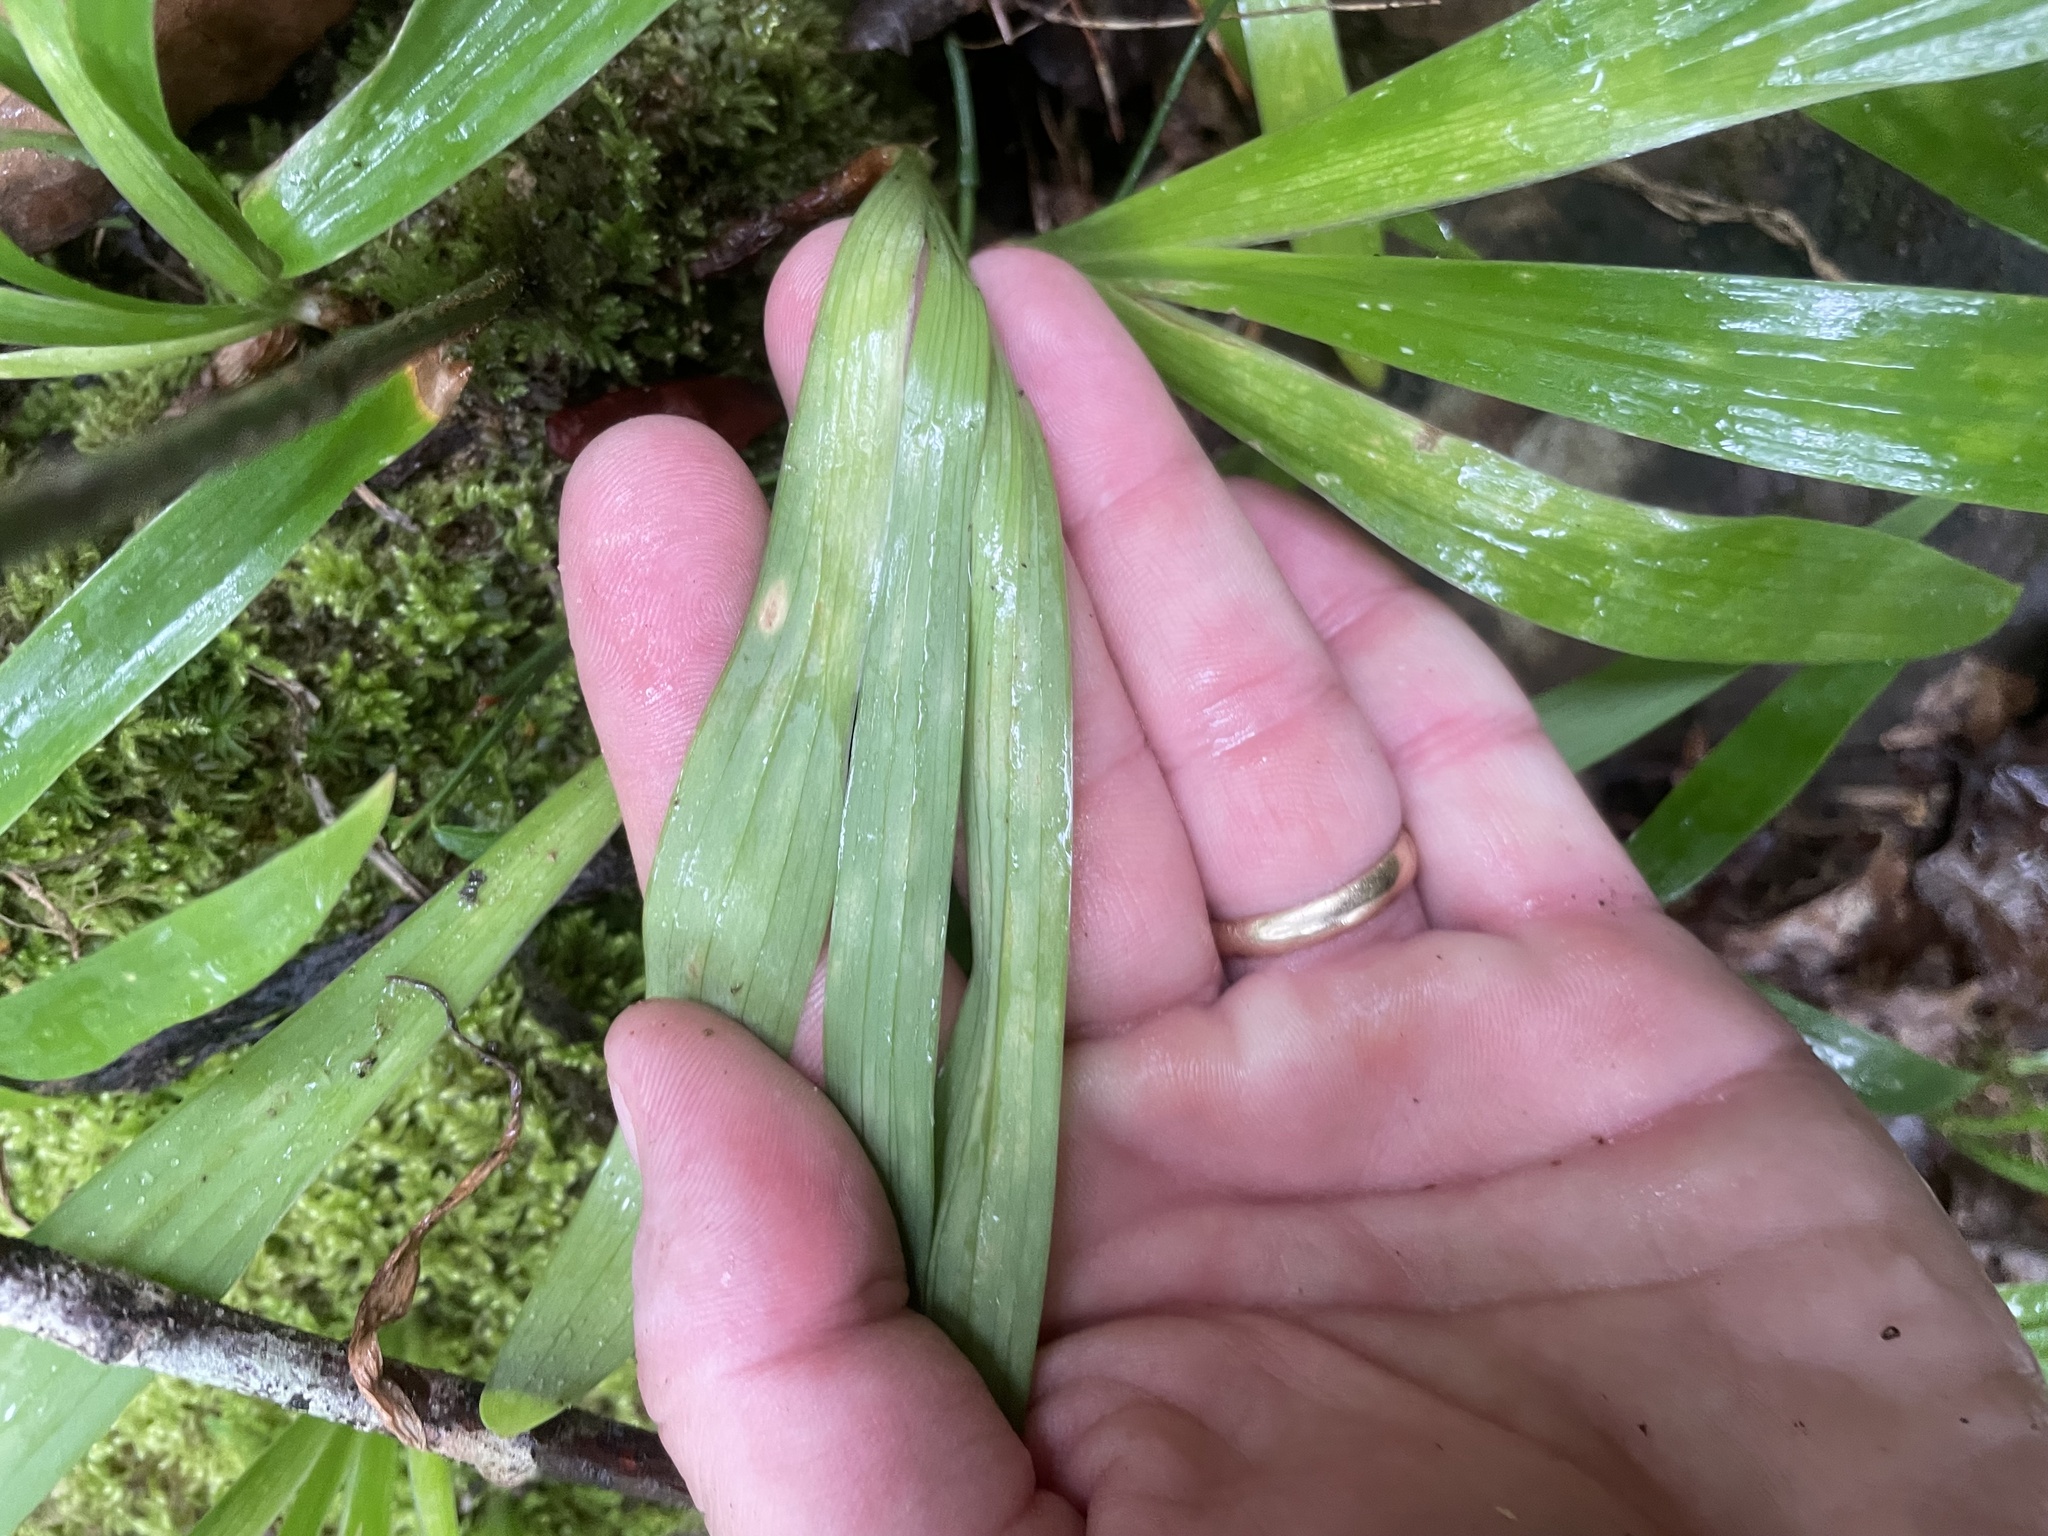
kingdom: Plantae
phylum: Tracheophyta
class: Liliopsida
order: Asparagales
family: Iridaceae
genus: Iris
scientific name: Iris cristata
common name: Crested iris
